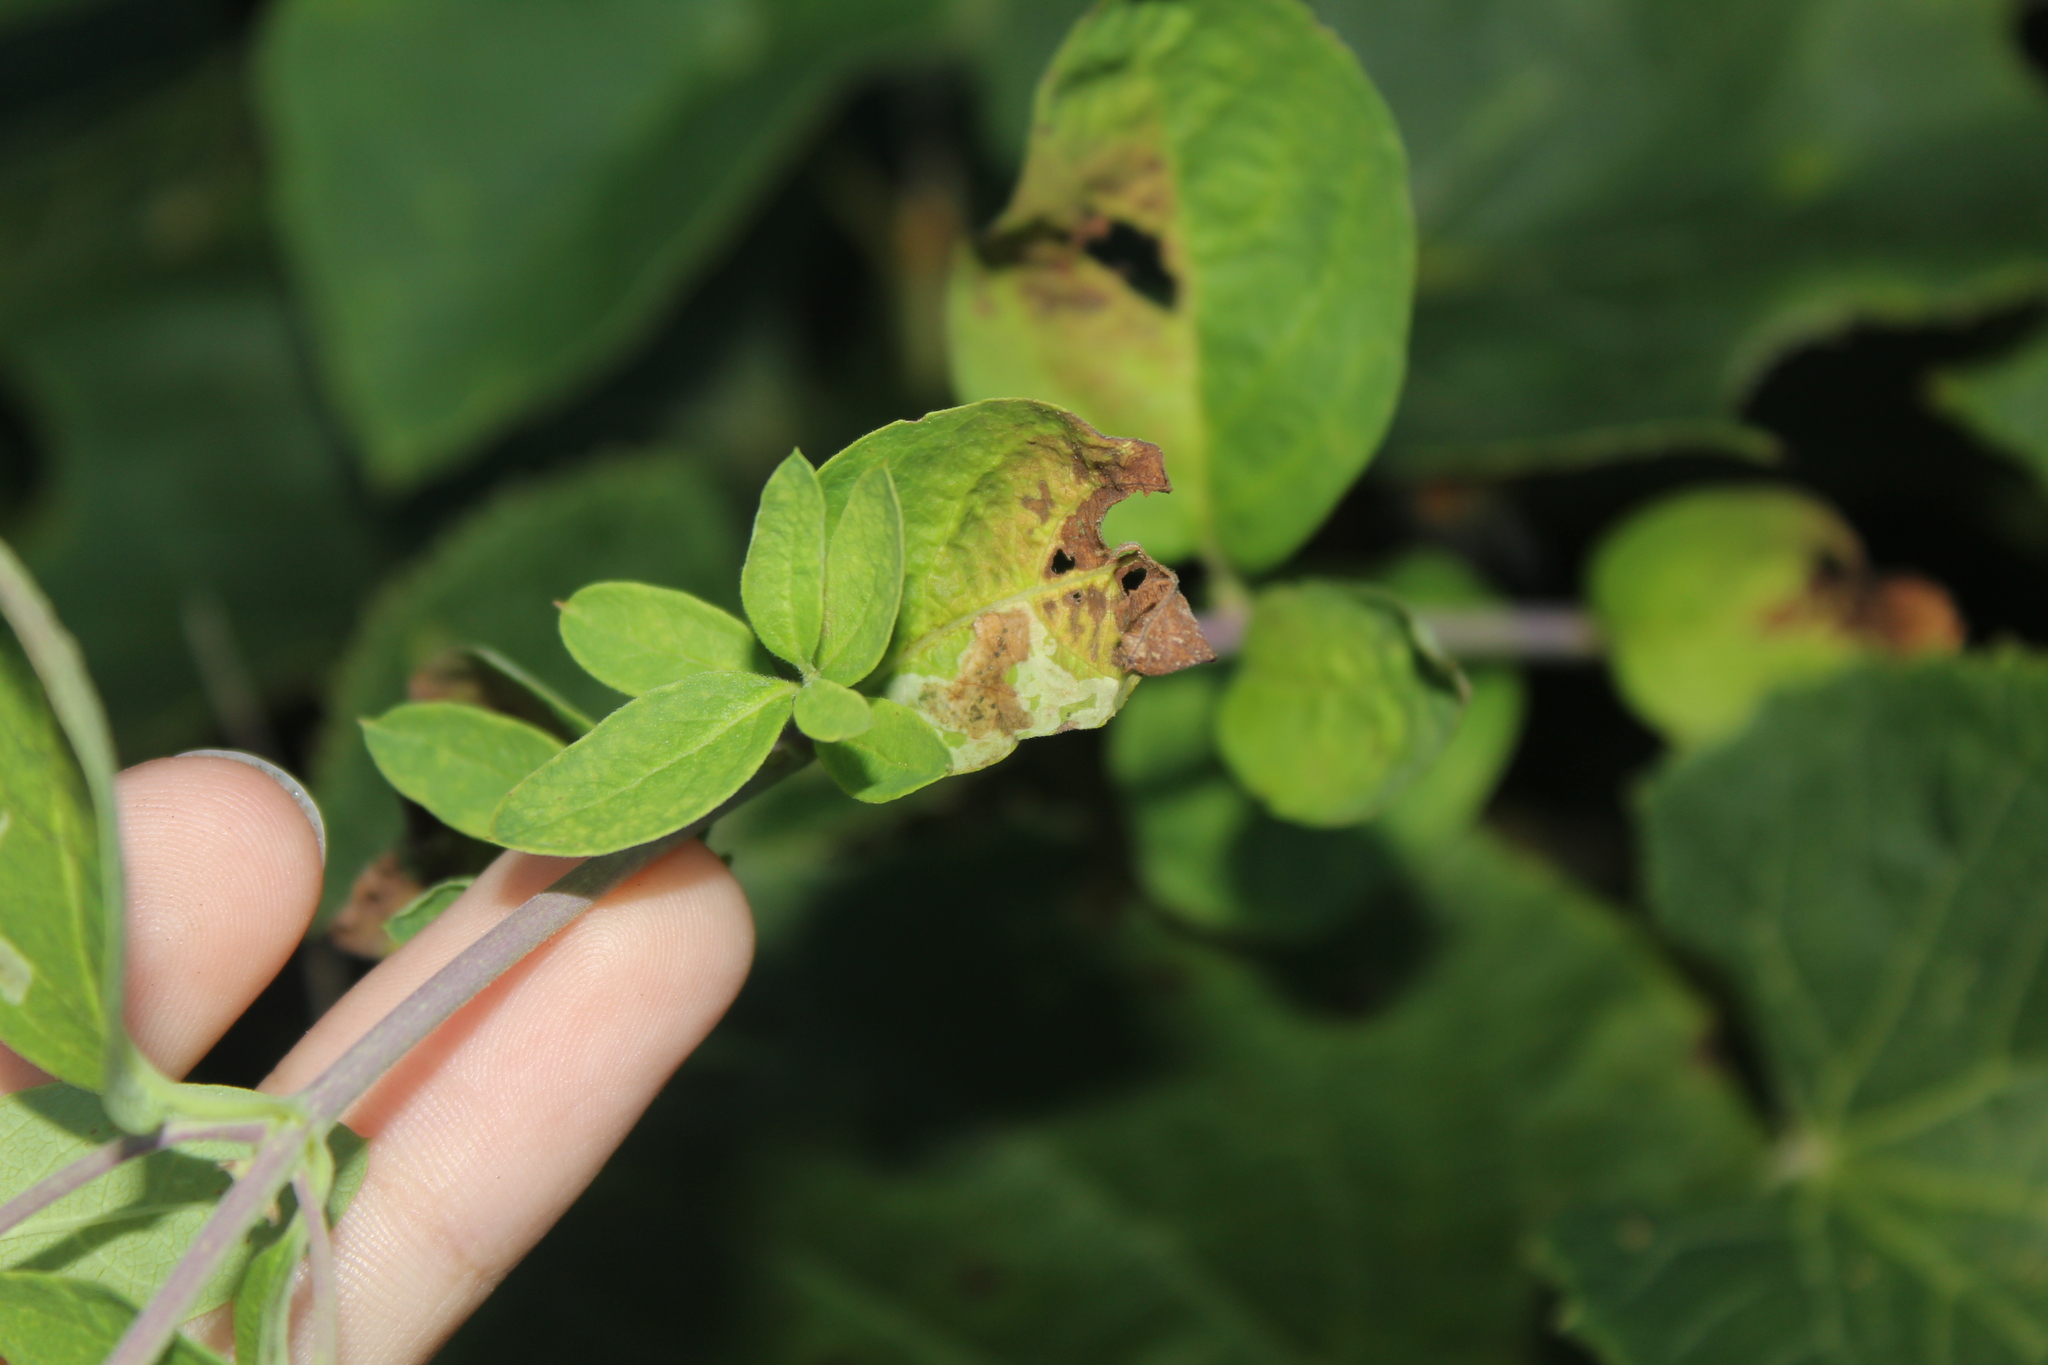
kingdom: Animalia
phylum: Arthropoda
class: Insecta
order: Diptera
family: Agromyzidae
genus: Aulagromyza
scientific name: Aulagromyza
